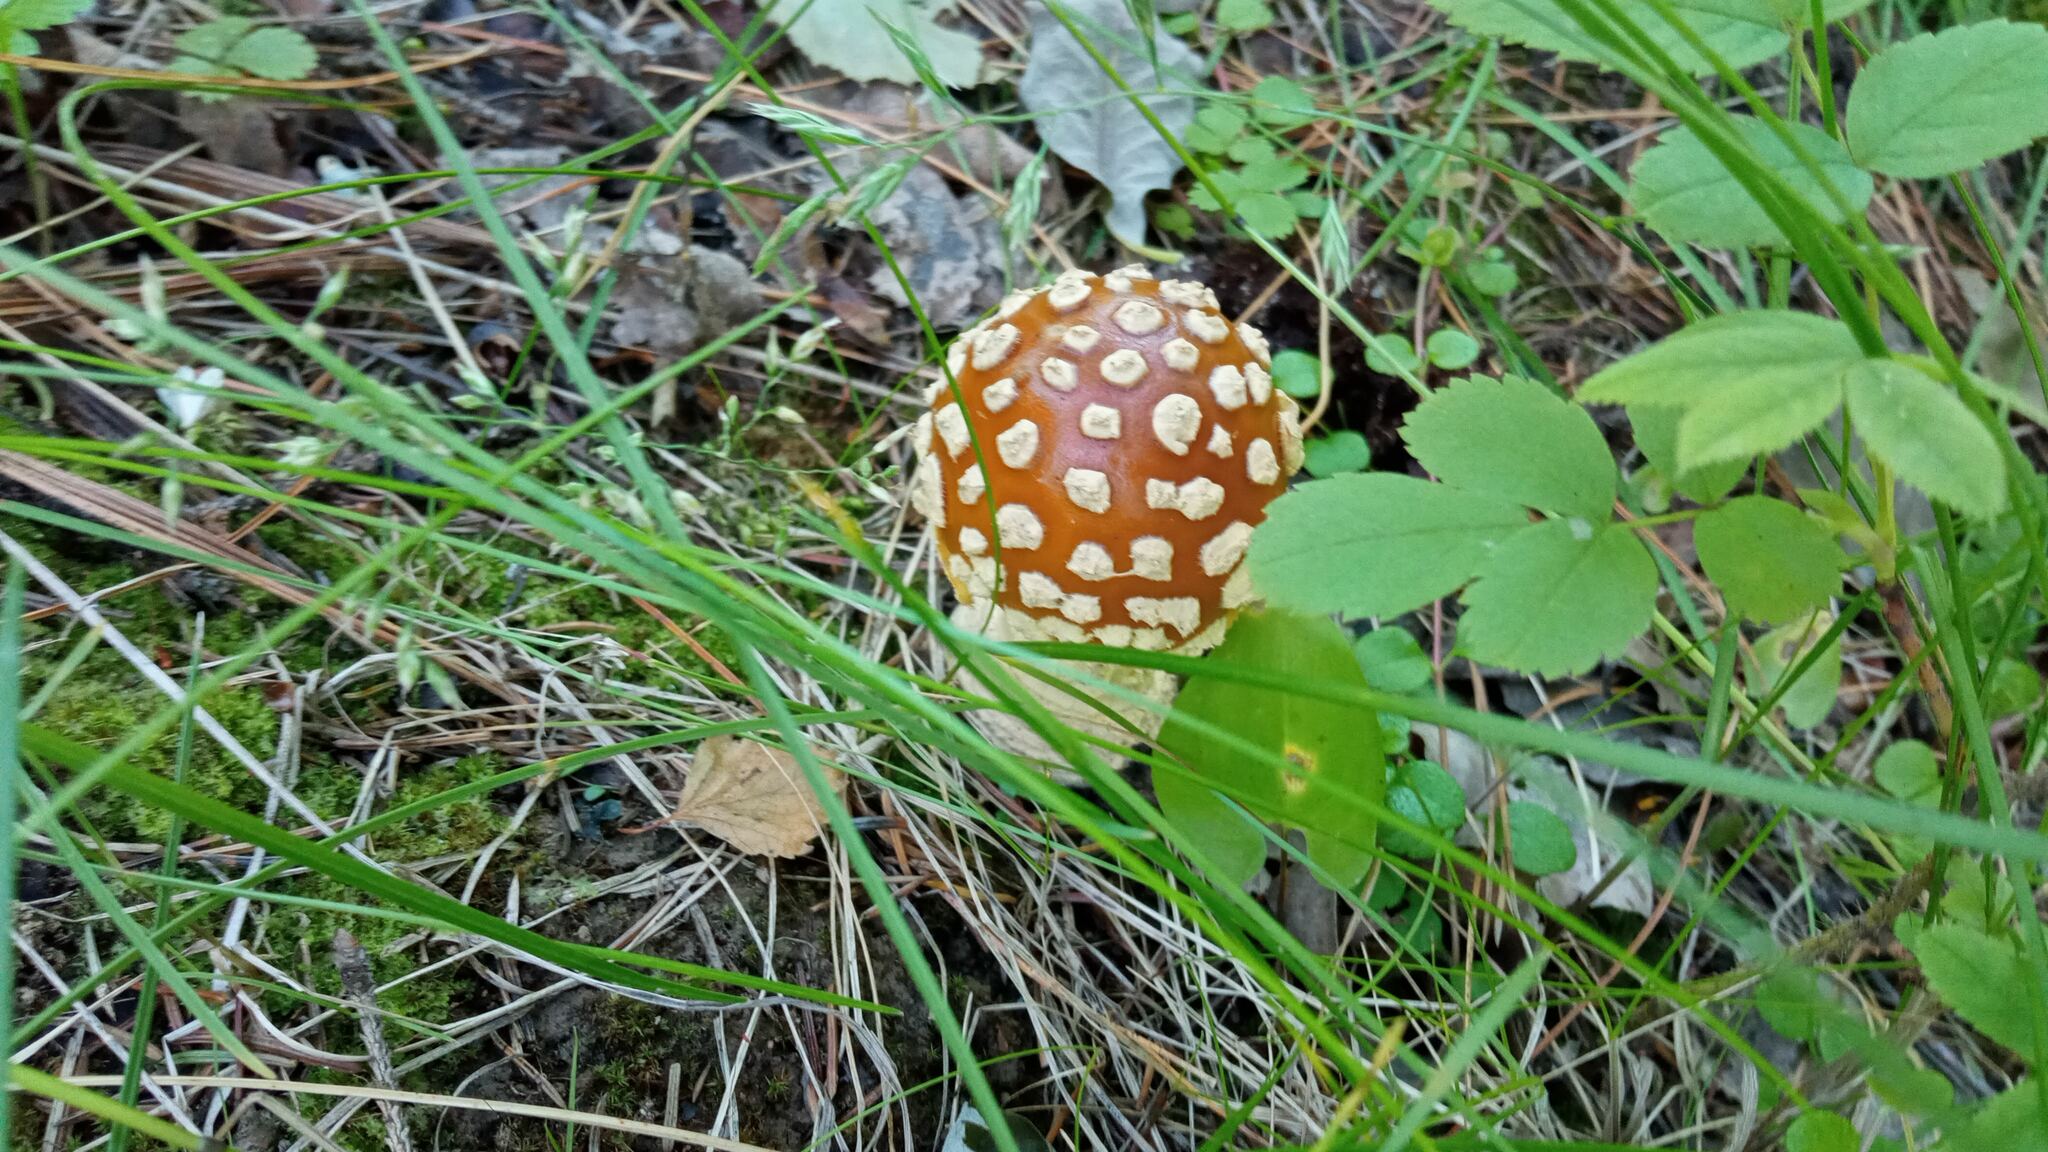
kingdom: Fungi
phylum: Basidiomycota
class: Agaricomycetes
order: Agaricales
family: Amanitaceae
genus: Amanita
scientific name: Amanita regalis
